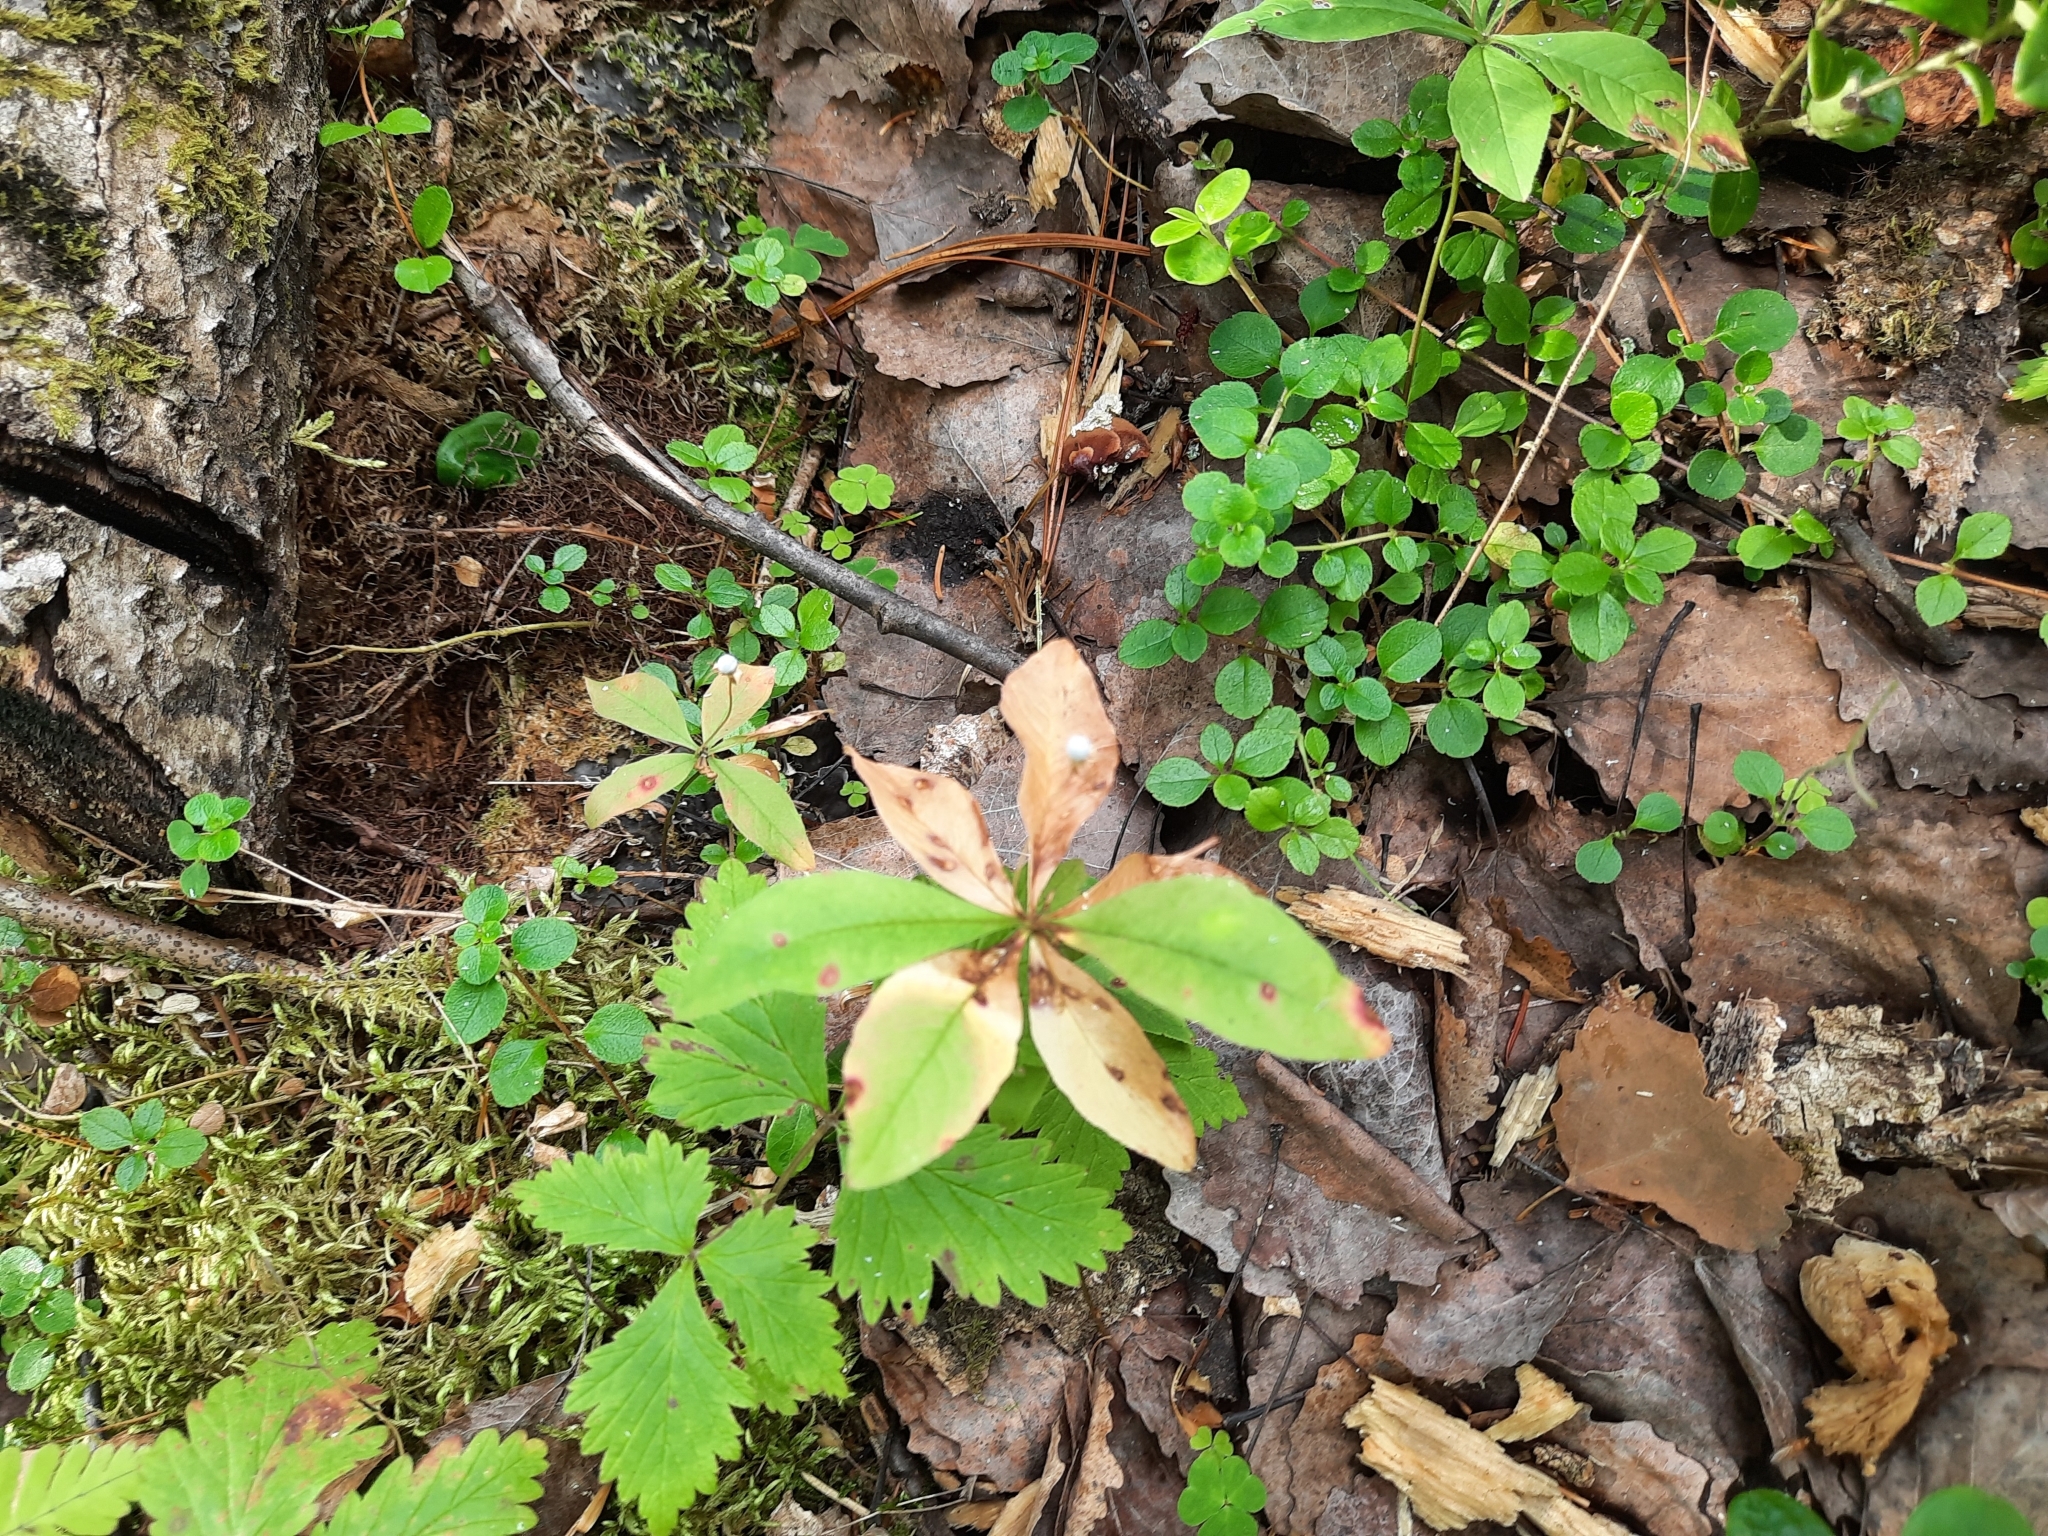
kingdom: Plantae
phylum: Tracheophyta
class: Magnoliopsida
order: Ericales
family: Primulaceae
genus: Lysimachia
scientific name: Lysimachia europaea
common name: Arctic starflower
